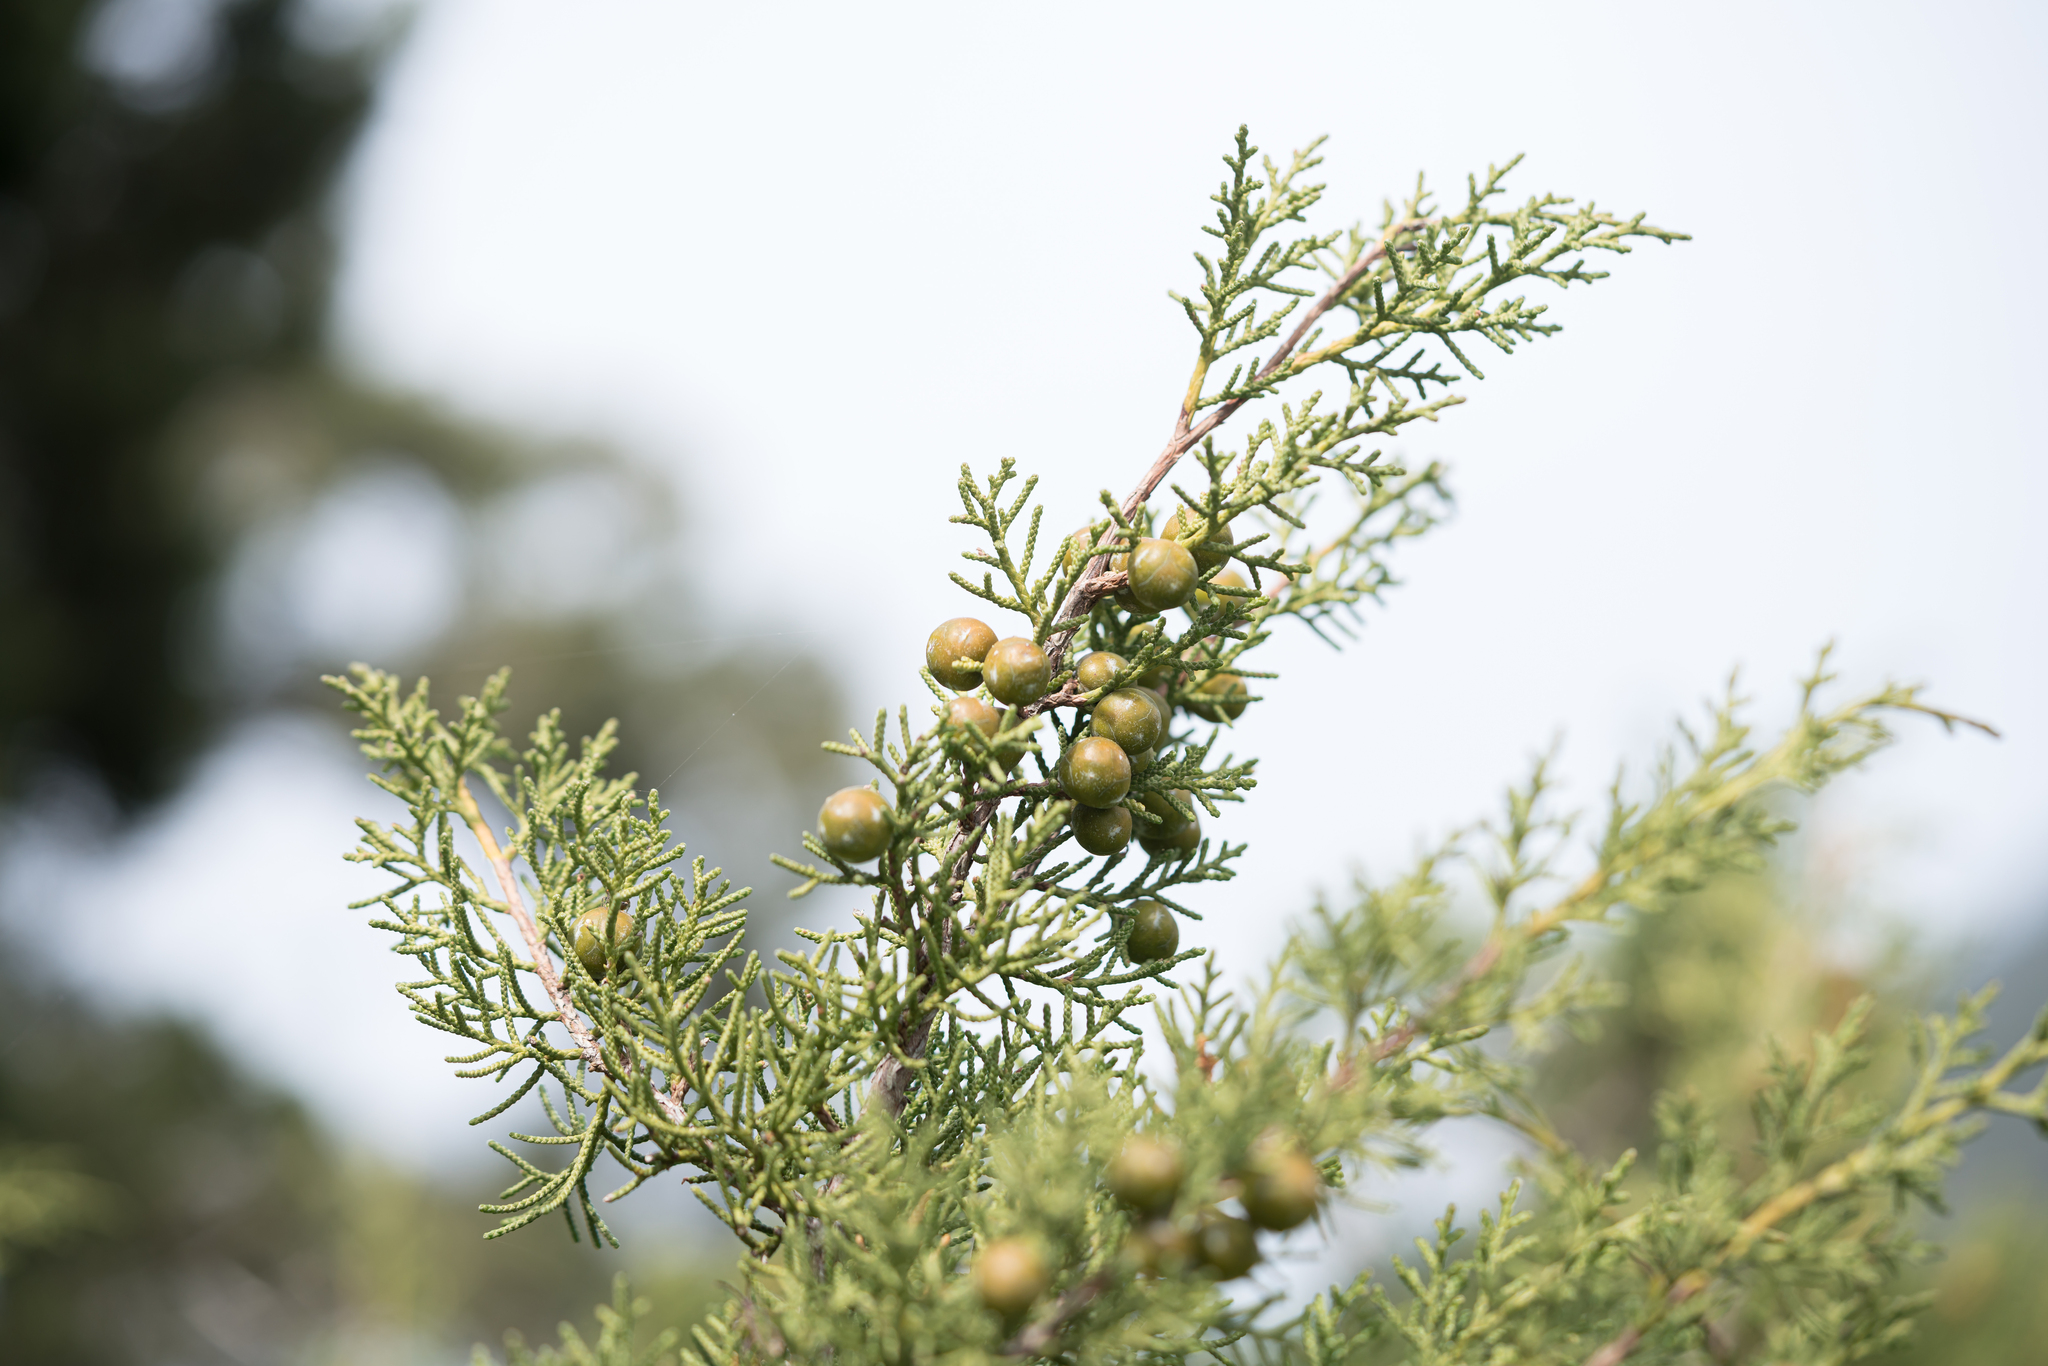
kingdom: Plantae
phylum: Tracheophyta
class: Pinopsida
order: Pinales
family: Cupressaceae
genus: Juniperus
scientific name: Juniperus phoenicea
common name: Phoenician juniper
